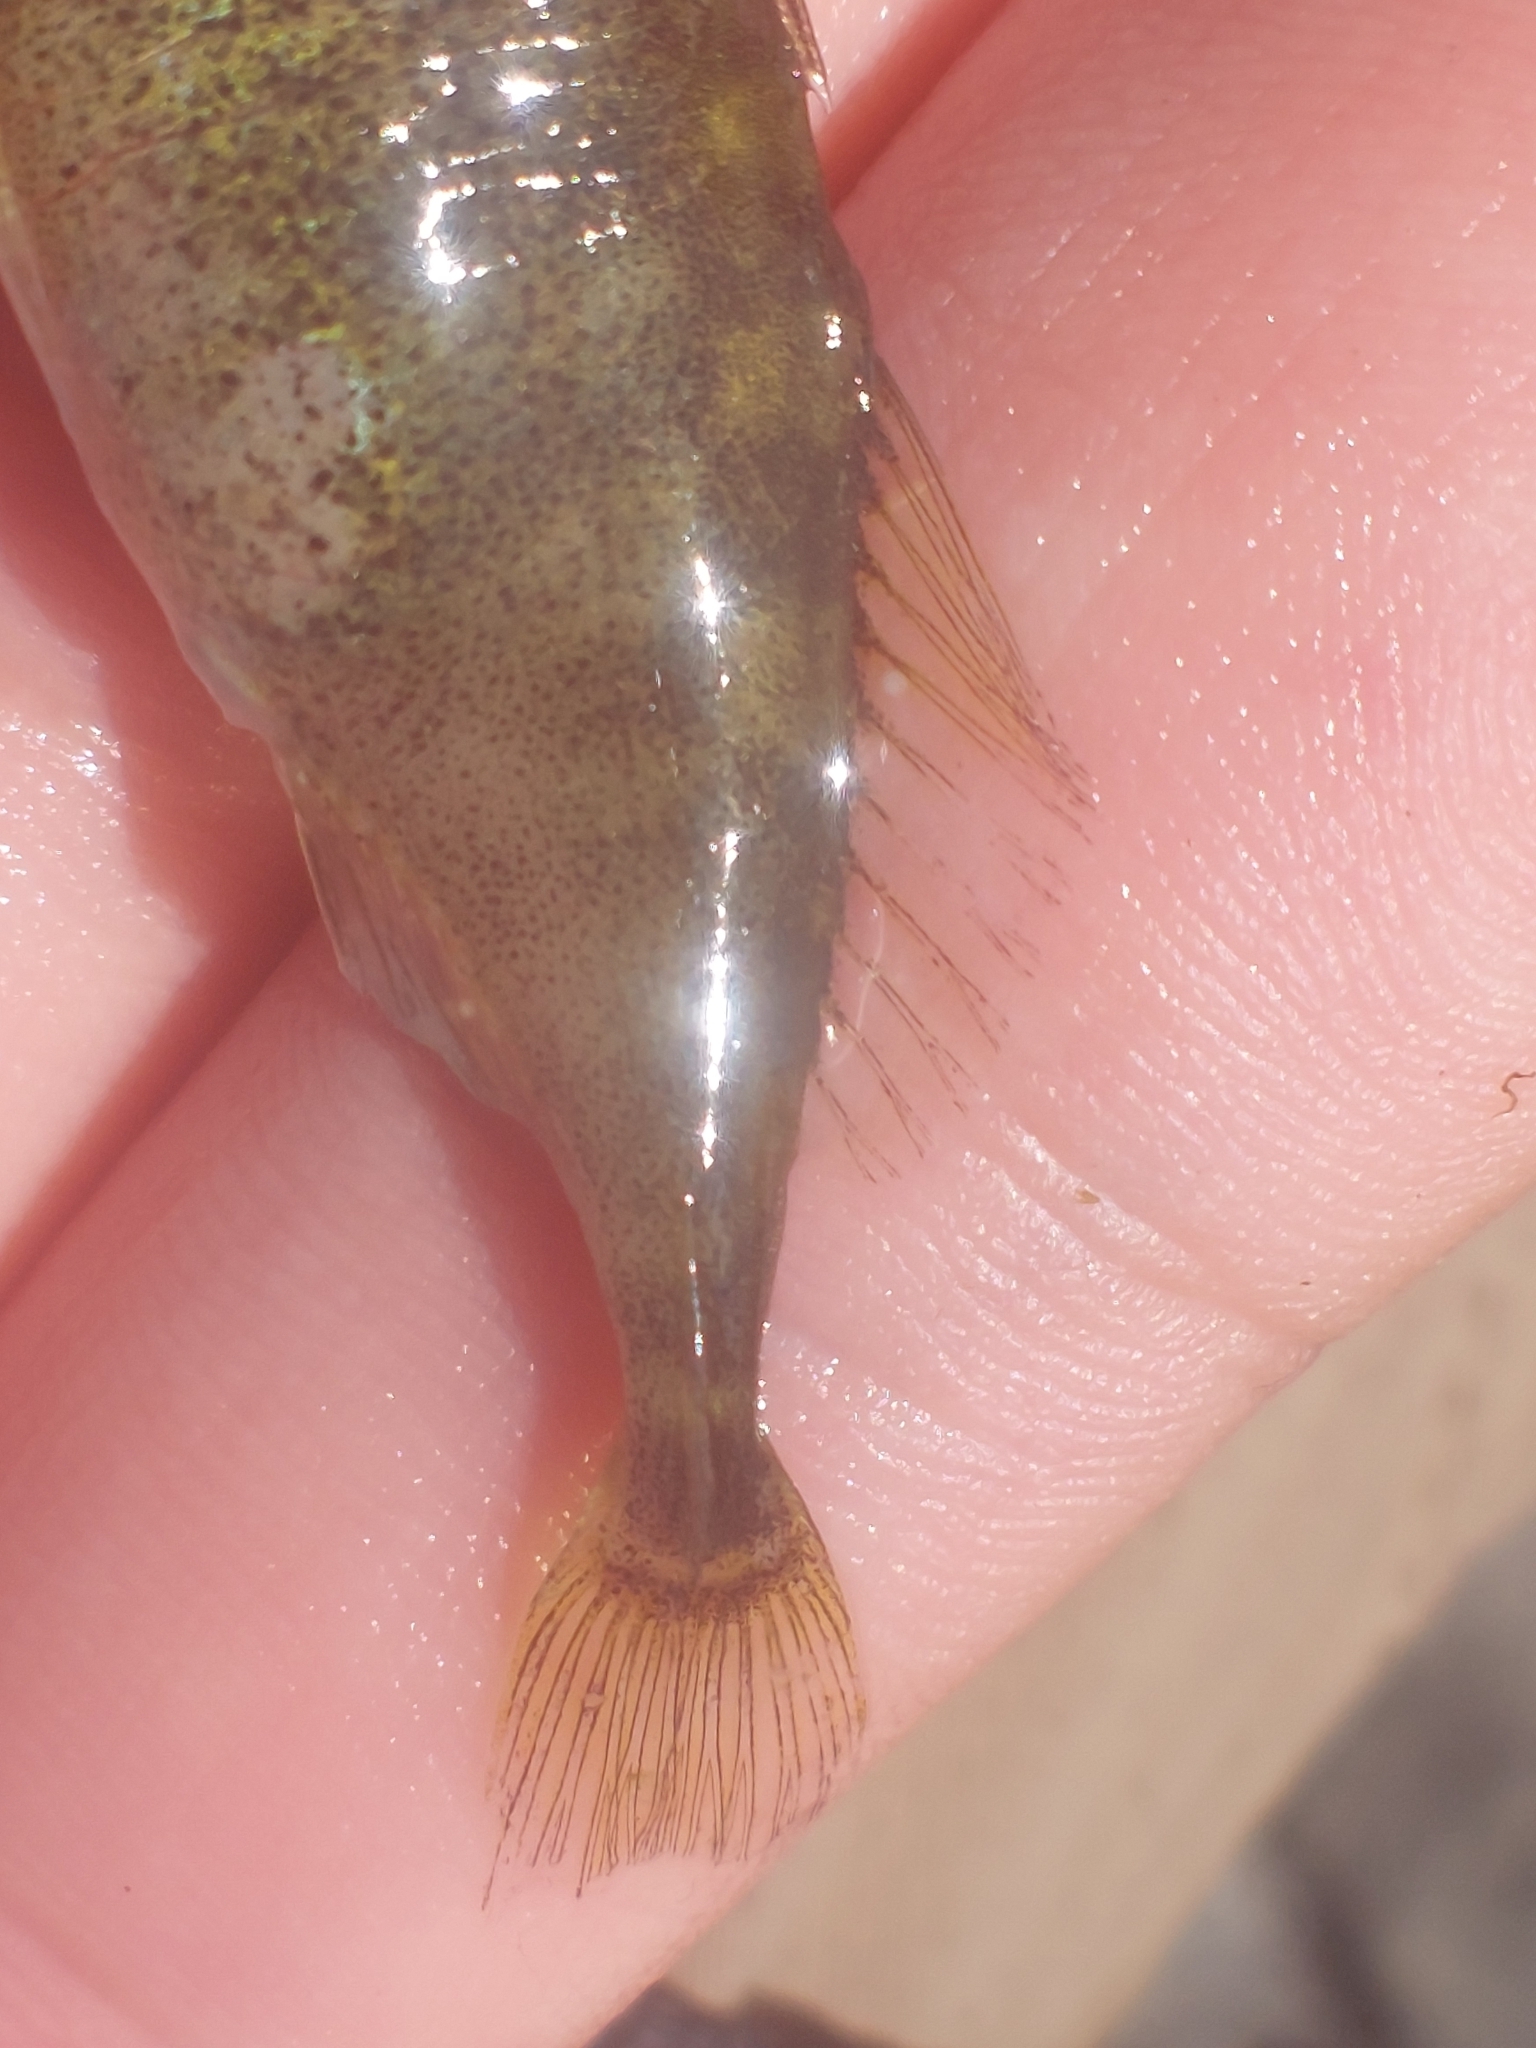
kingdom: Animalia
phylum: Chordata
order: Gasterosteiformes
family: Gasterosteidae
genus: Gasterosteus
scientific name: Gasterosteus aculeatus
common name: Three-spined stickleback
